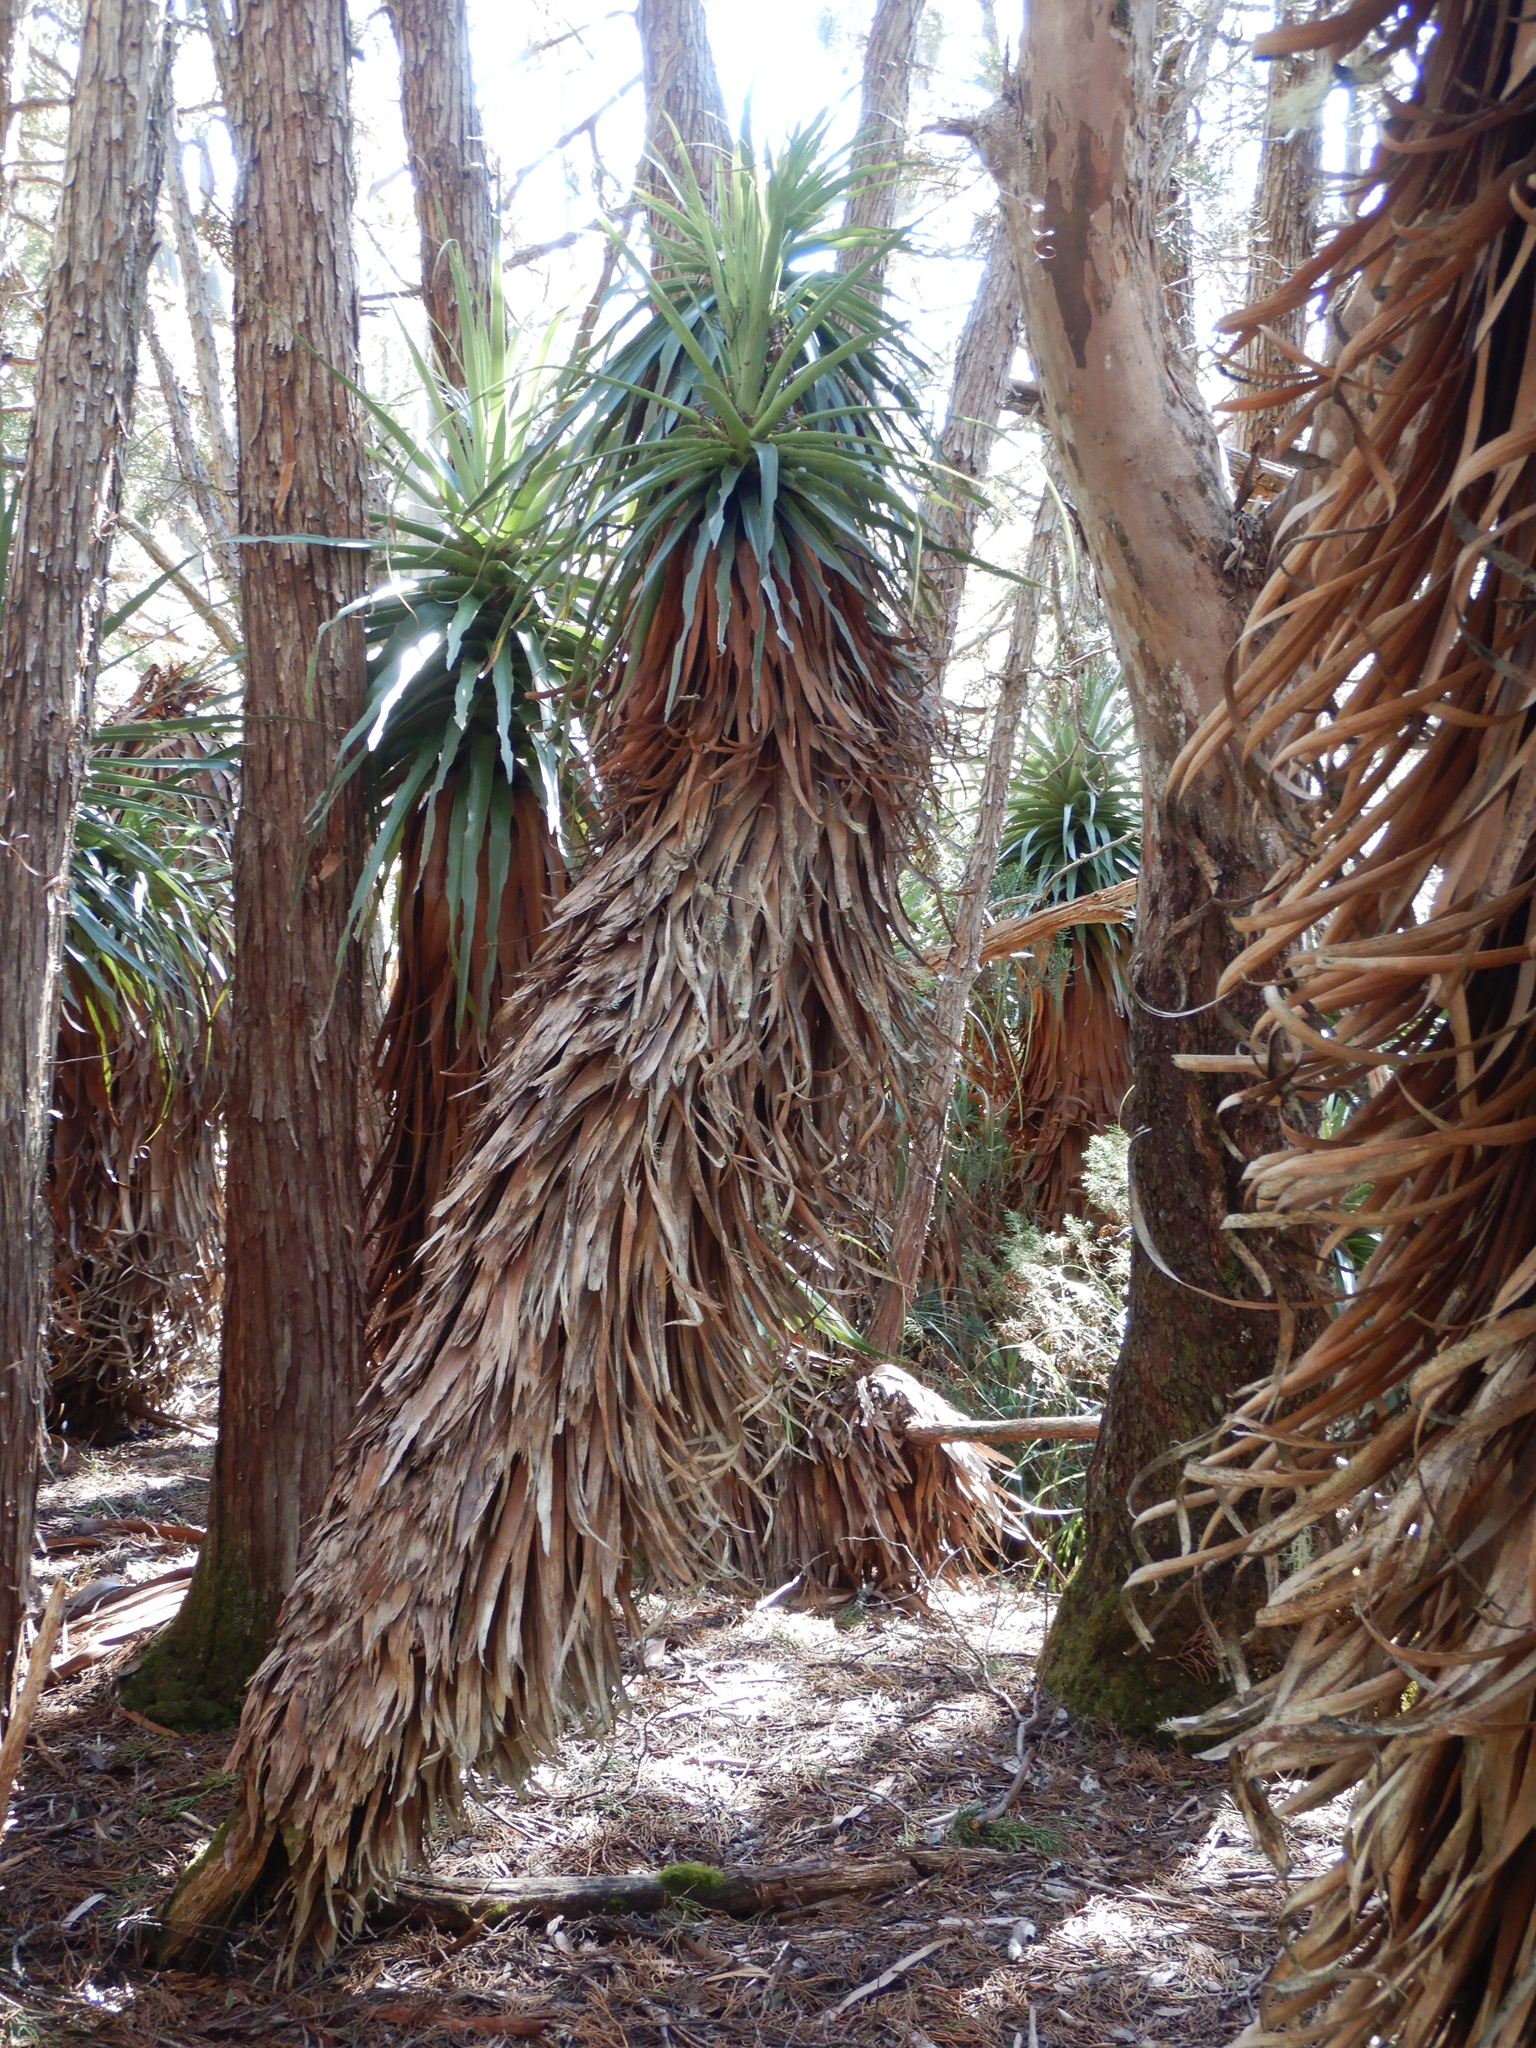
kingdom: Plantae
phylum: Tracheophyta
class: Magnoliopsida
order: Ericales
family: Ericaceae
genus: Dracophyllum
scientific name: Dracophyllum pandanifolium
